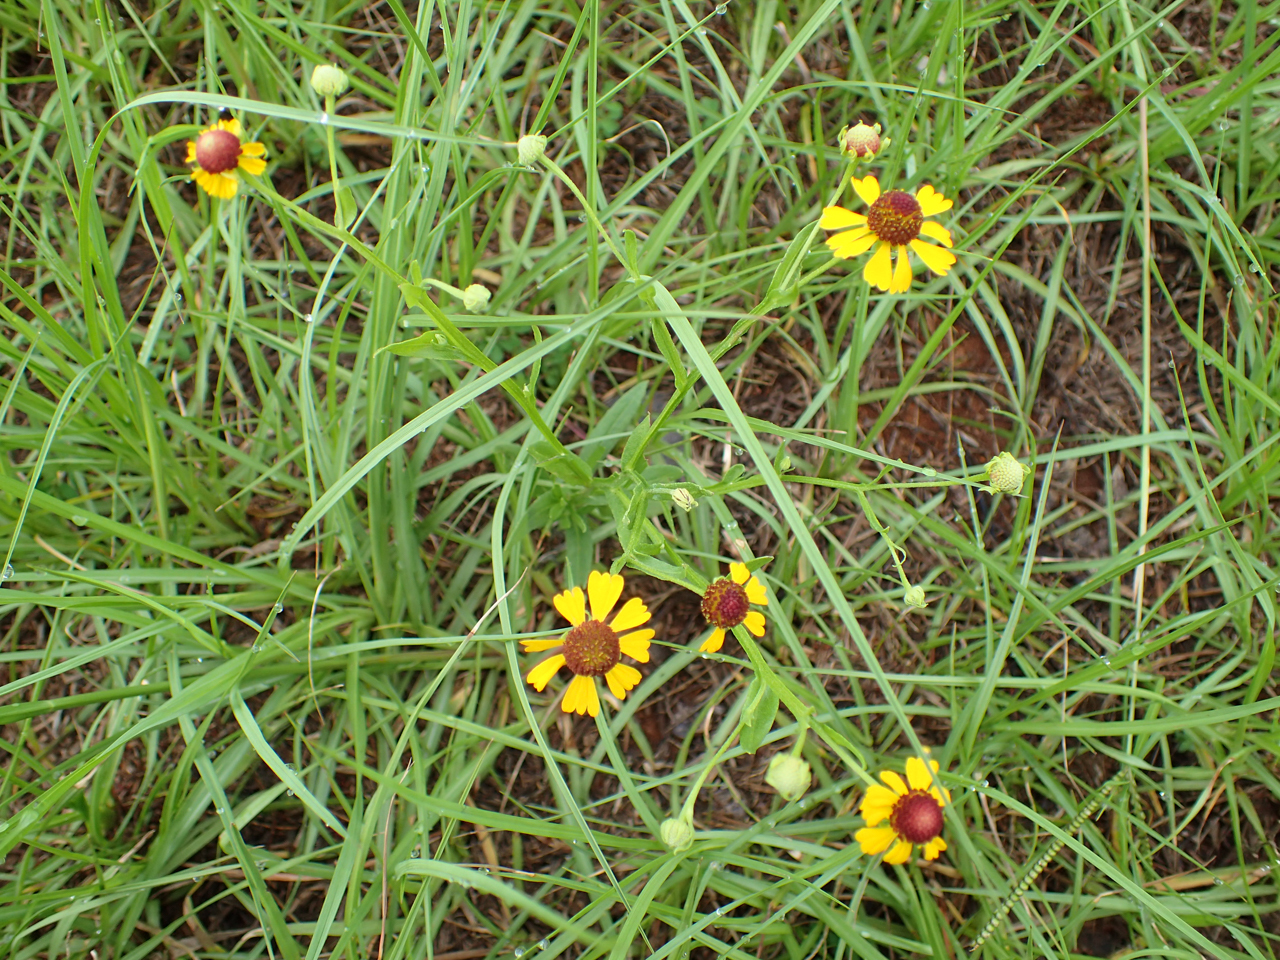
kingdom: Plantae
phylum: Tracheophyta
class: Magnoliopsida
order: Asterales
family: Asteraceae
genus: Helenium
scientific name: Helenium flexuosum
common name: Naked-flowered sneezeweed
